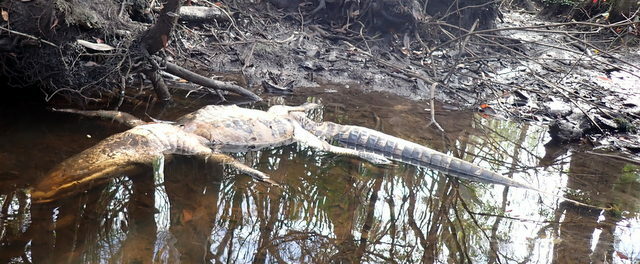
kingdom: Animalia
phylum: Chordata
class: Crocodylia
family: Alligatoridae
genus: Alligator
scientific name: Alligator mississippiensis
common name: American alligator
